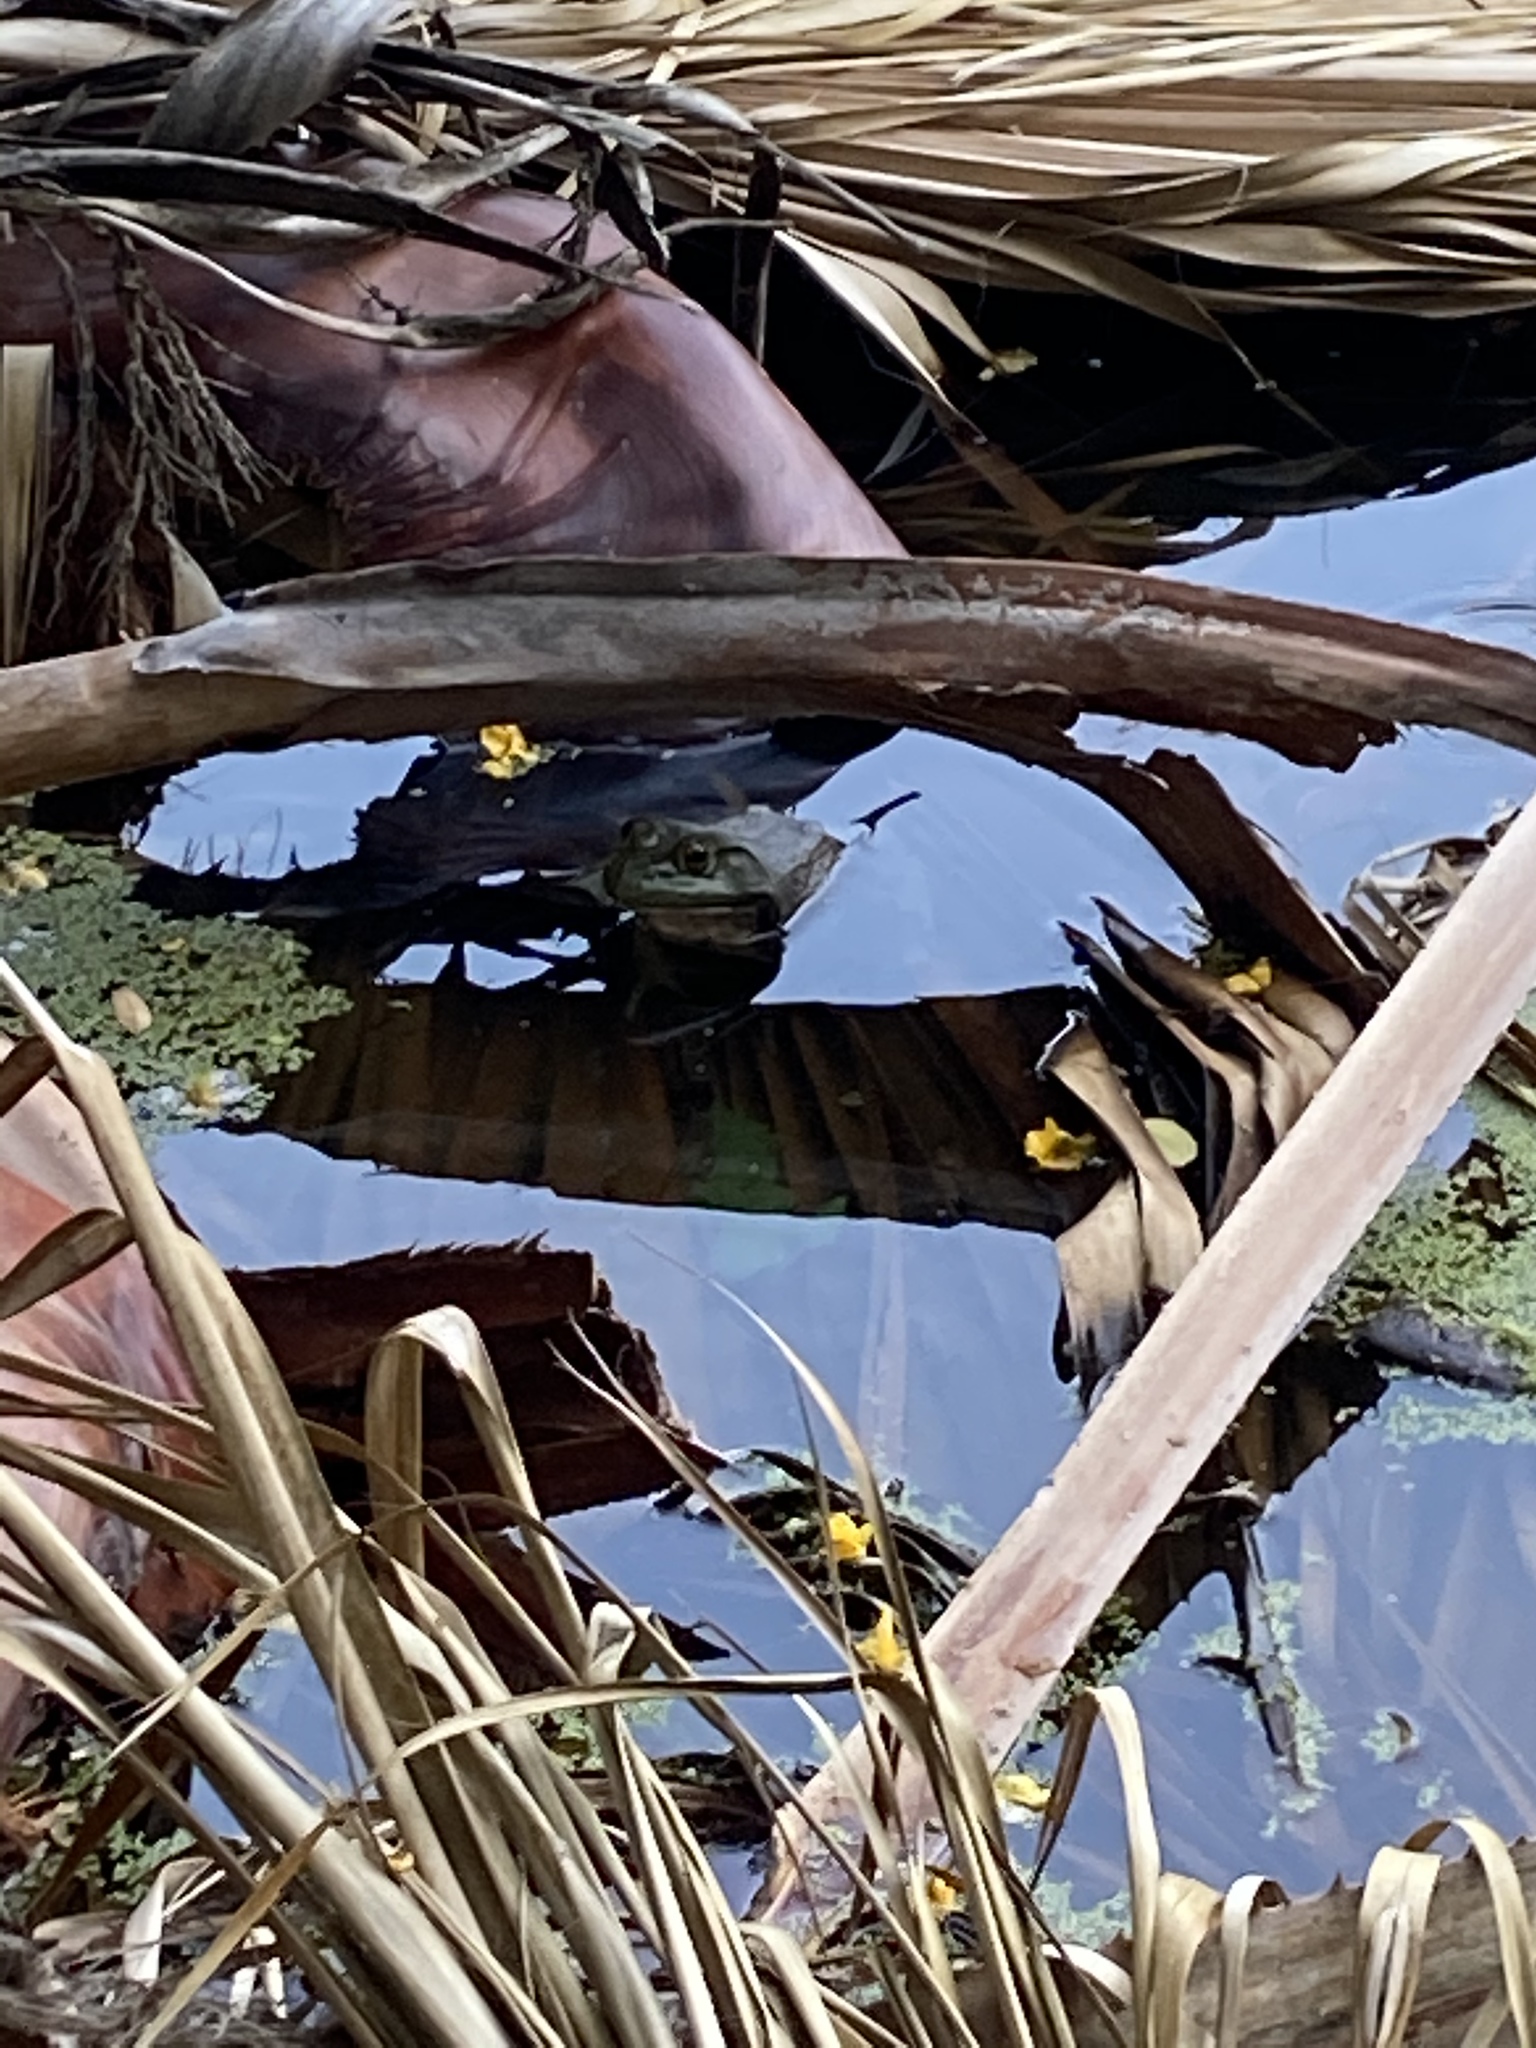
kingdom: Animalia
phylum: Chordata
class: Amphibia
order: Anura
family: Ranidae
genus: Lithobates
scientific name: Lithobates catesbeianus
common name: American bullfrog
